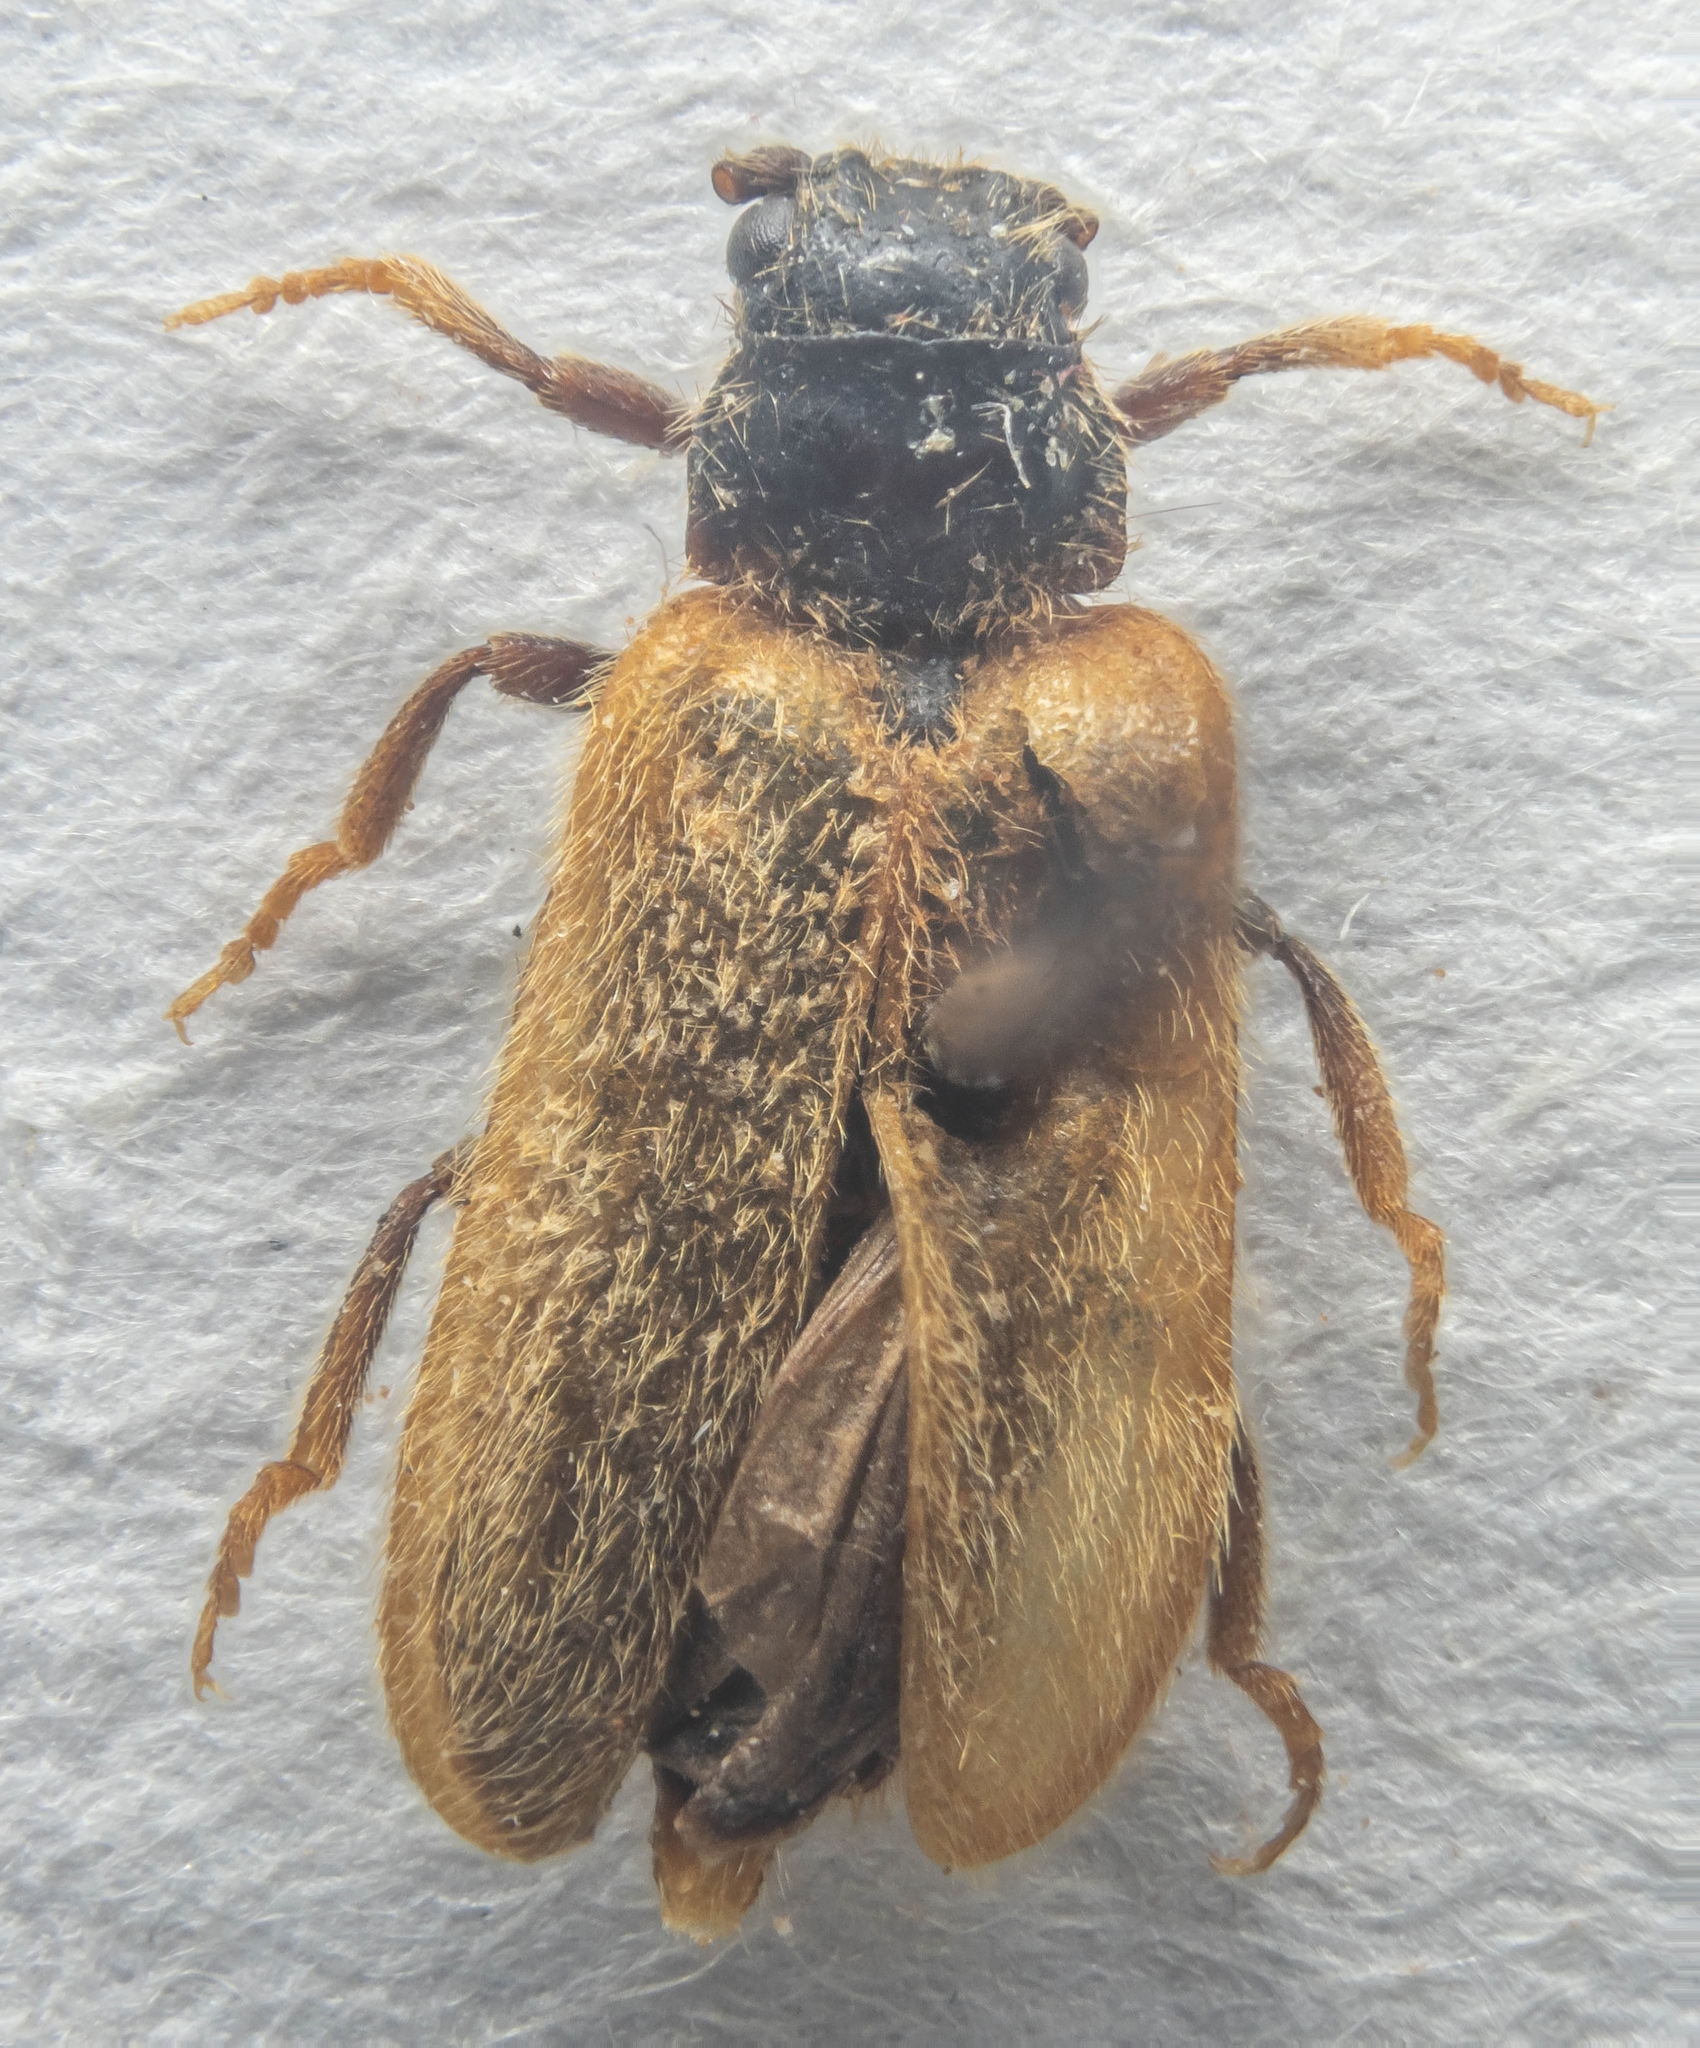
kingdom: Animalia
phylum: Arthropoda
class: Insecta
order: Coleoptera
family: Drilidae
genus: Drilus
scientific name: Drilus flavescens
